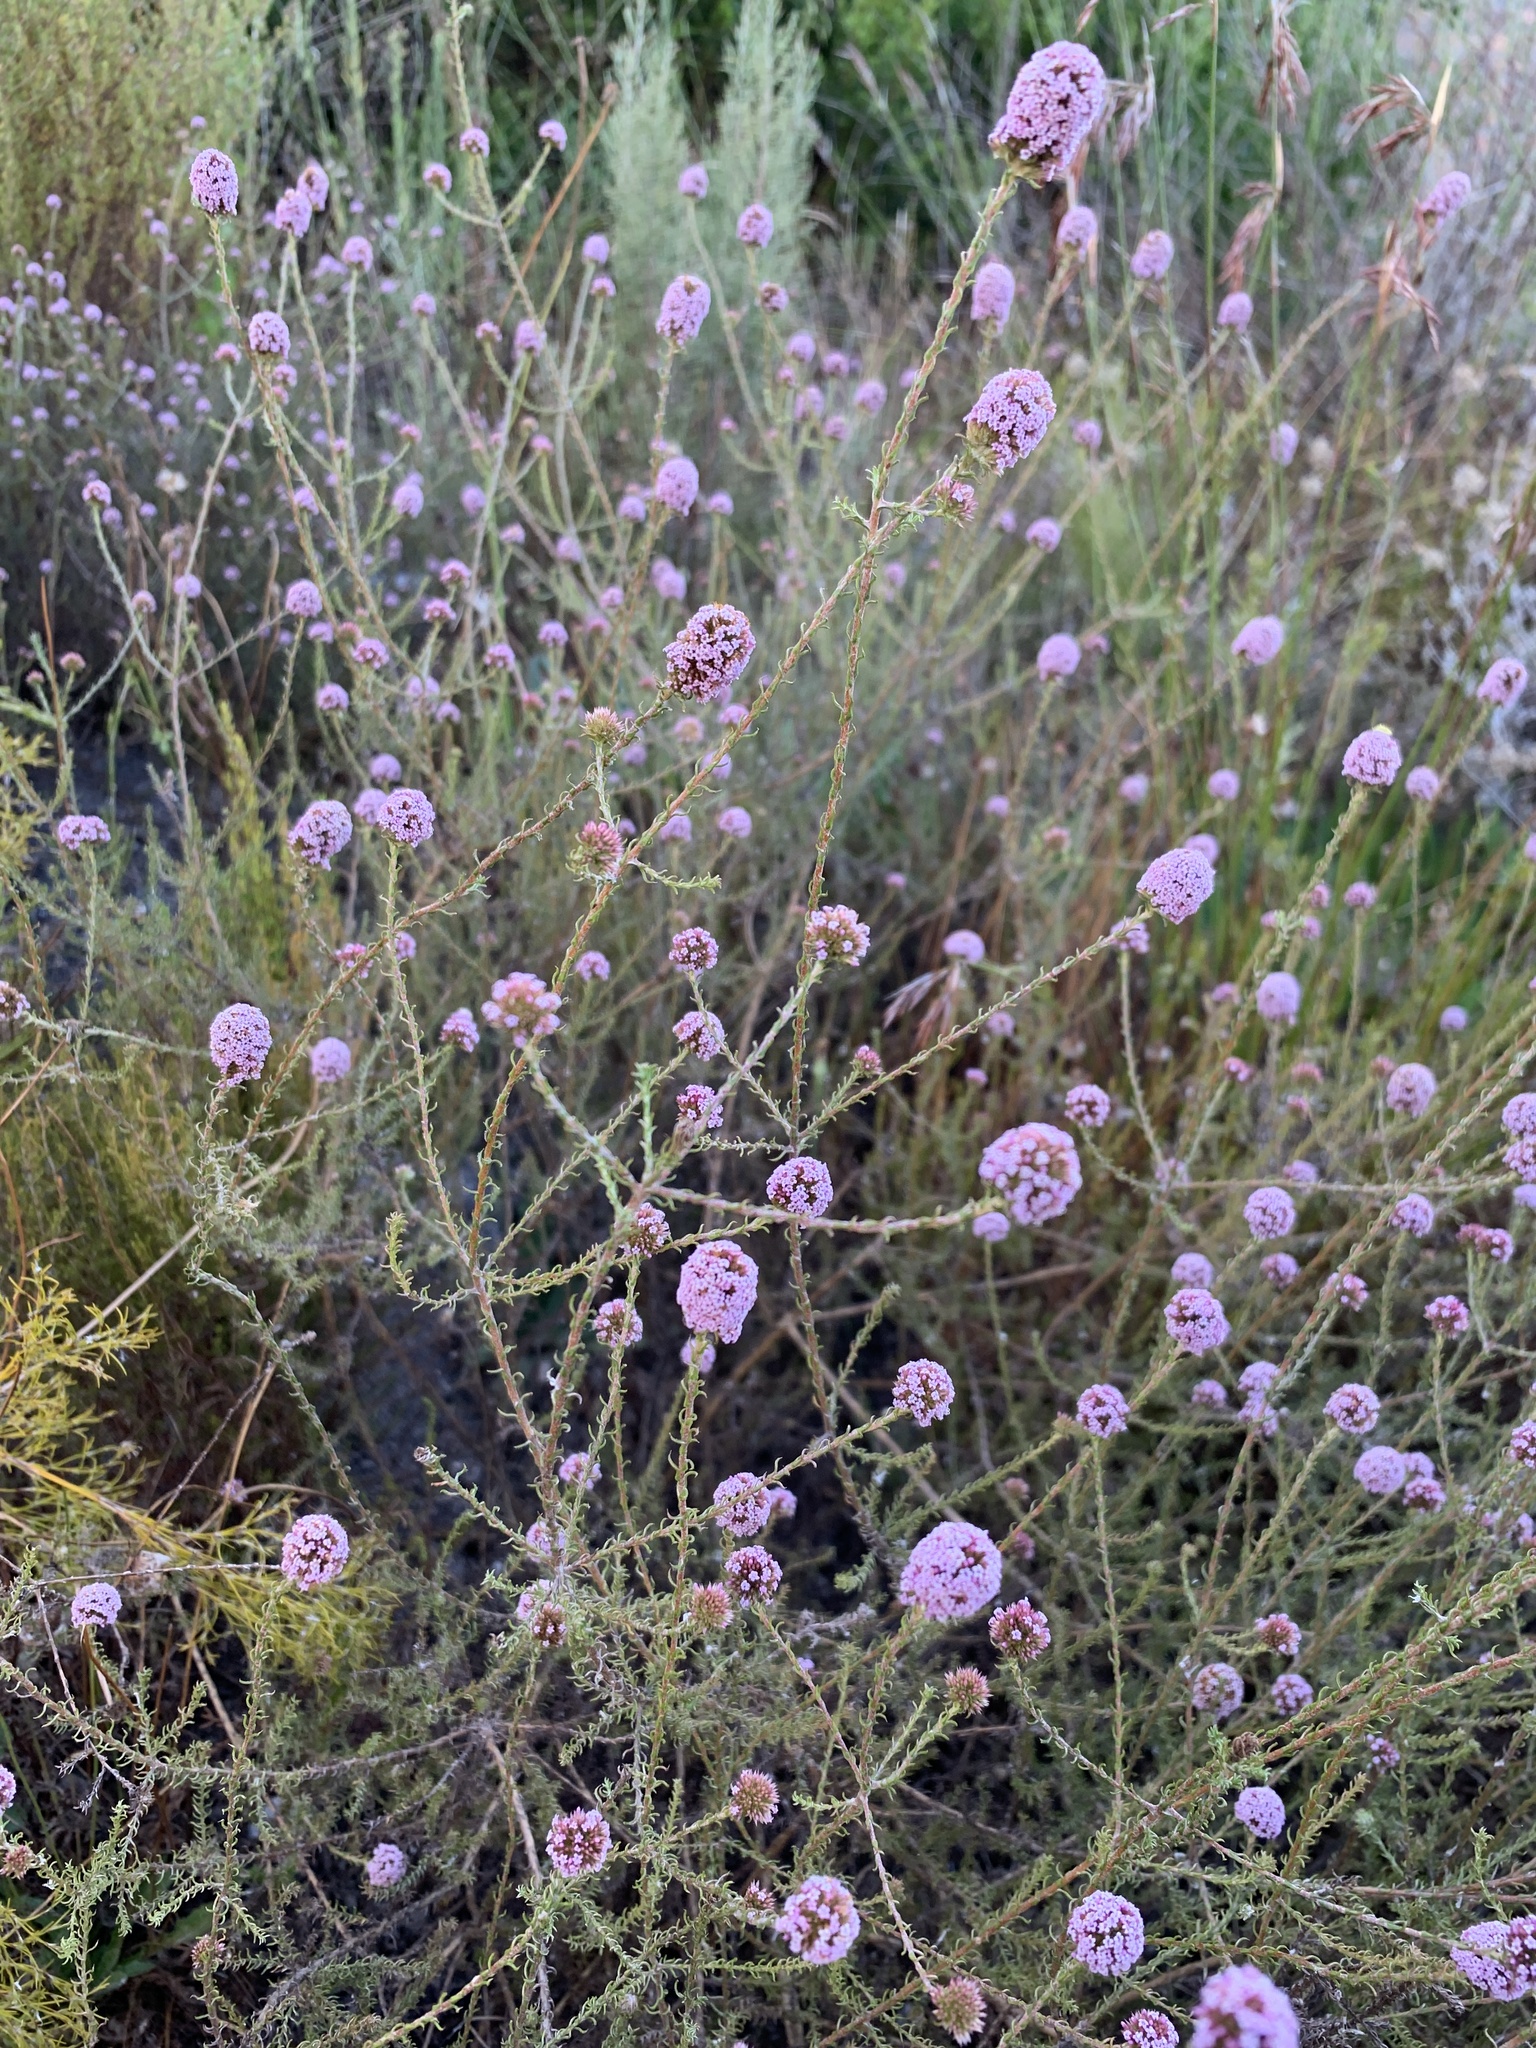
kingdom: Plantae
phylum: Tracheophyta
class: Magnoliopsida
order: Asterales
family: Asteraceae
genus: Stoebe
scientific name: Stoebe capitata
